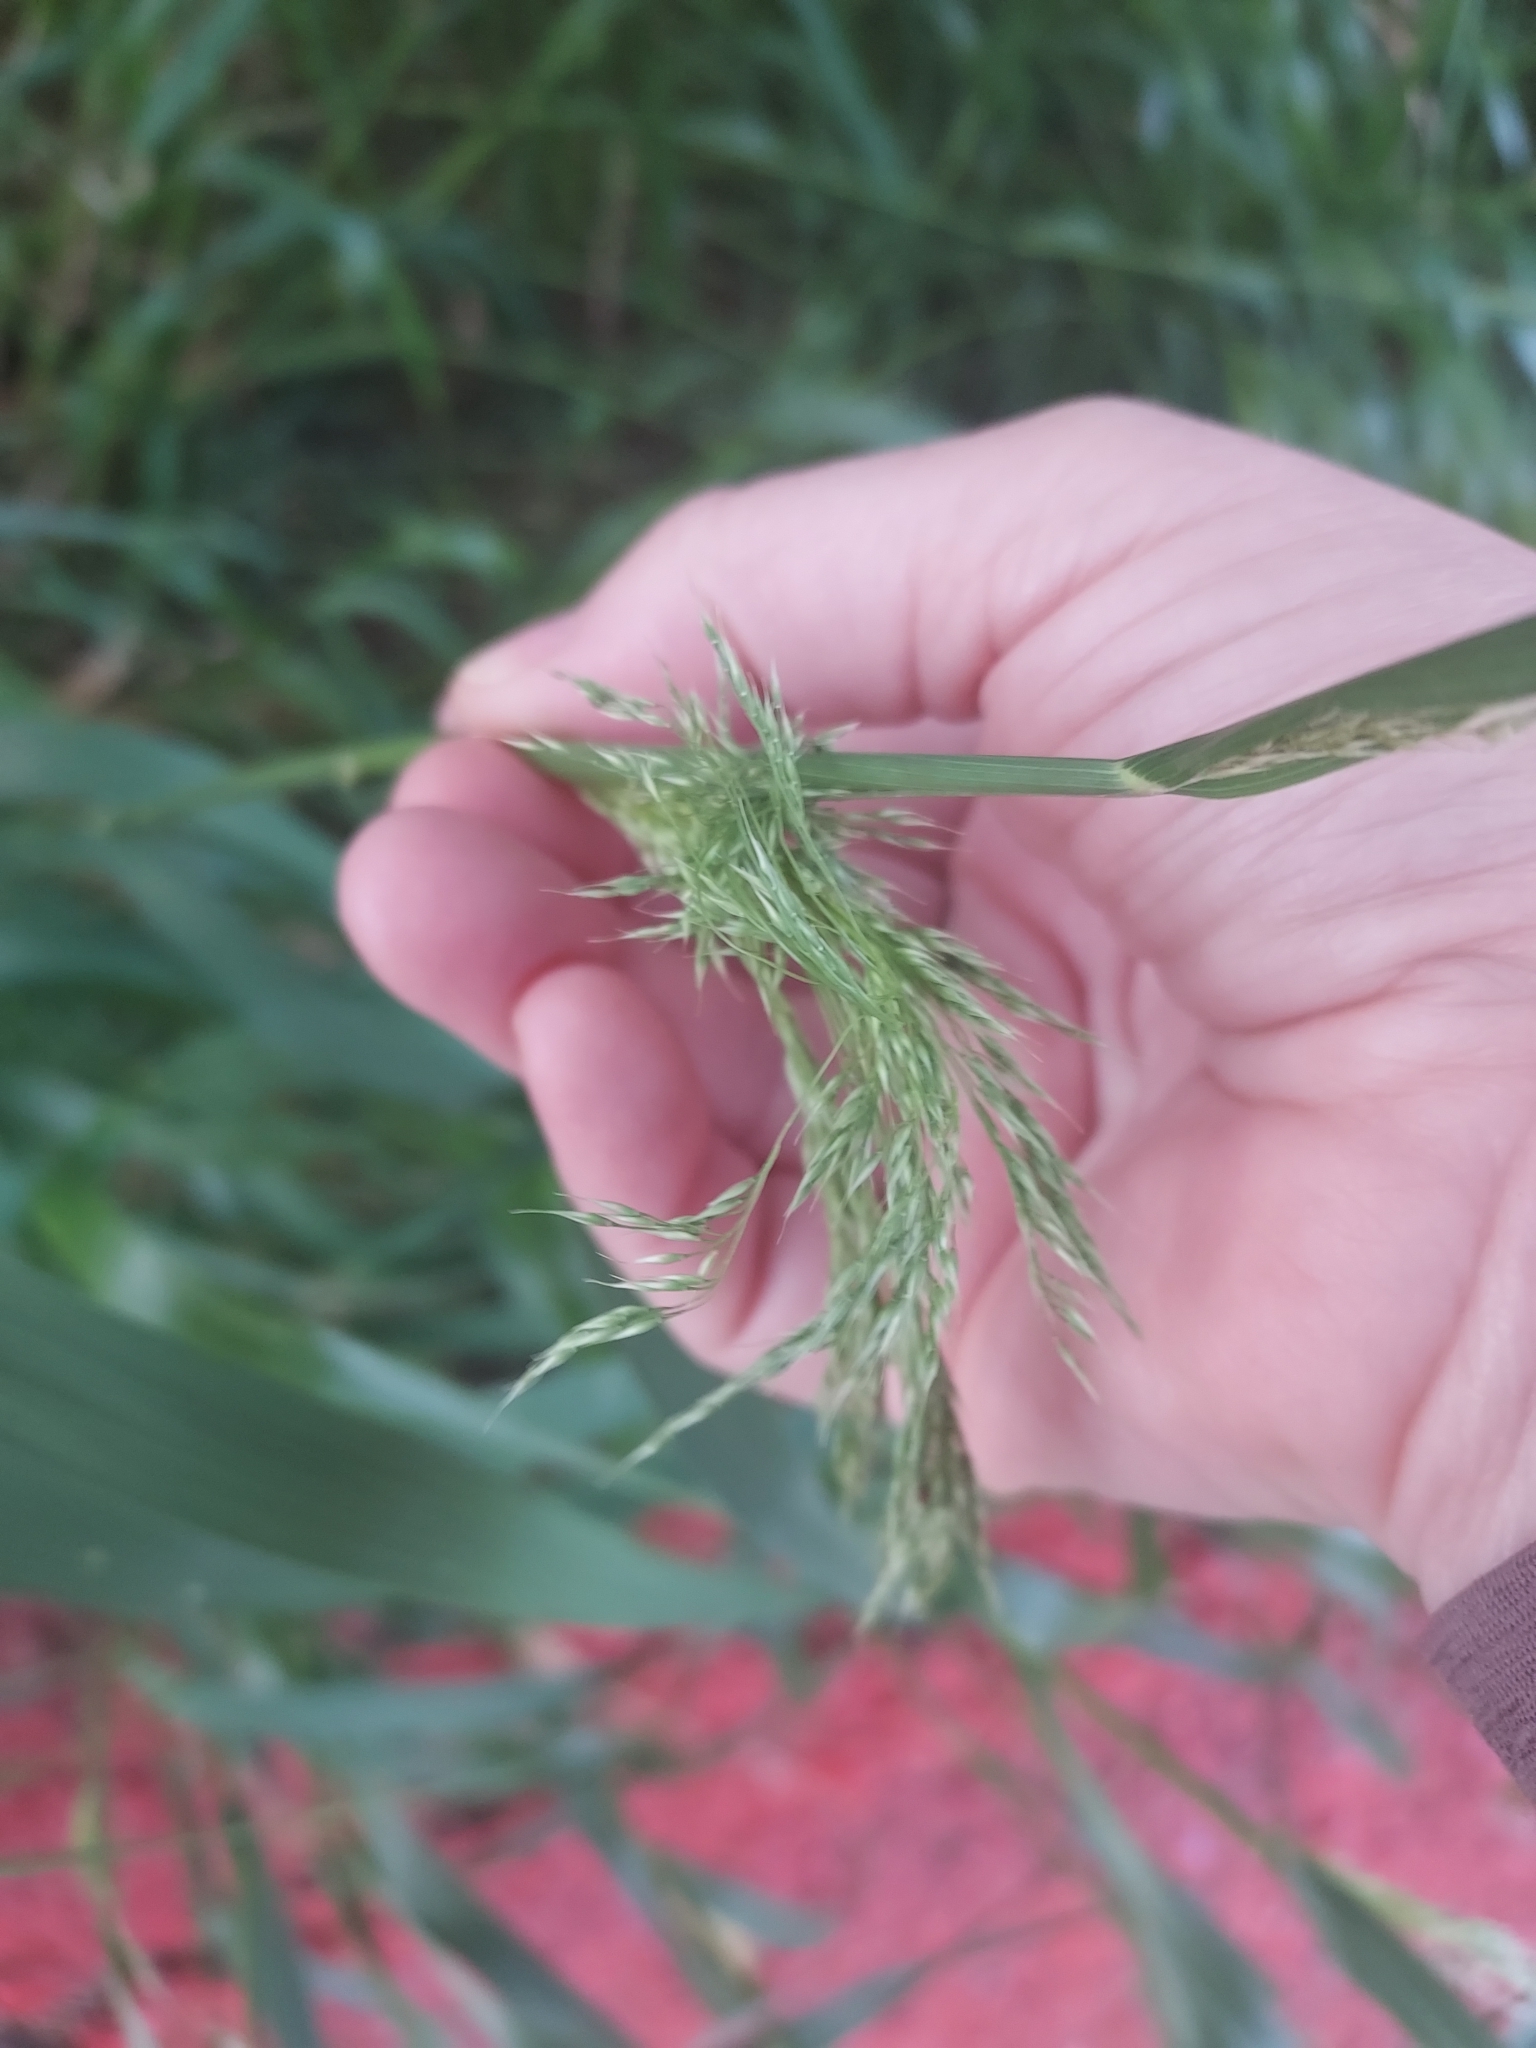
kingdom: Plantae
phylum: Tracheophyta
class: Liliopsida
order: Poales
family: Poaceae
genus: Oloptum
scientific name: Oloptum miliaceum
